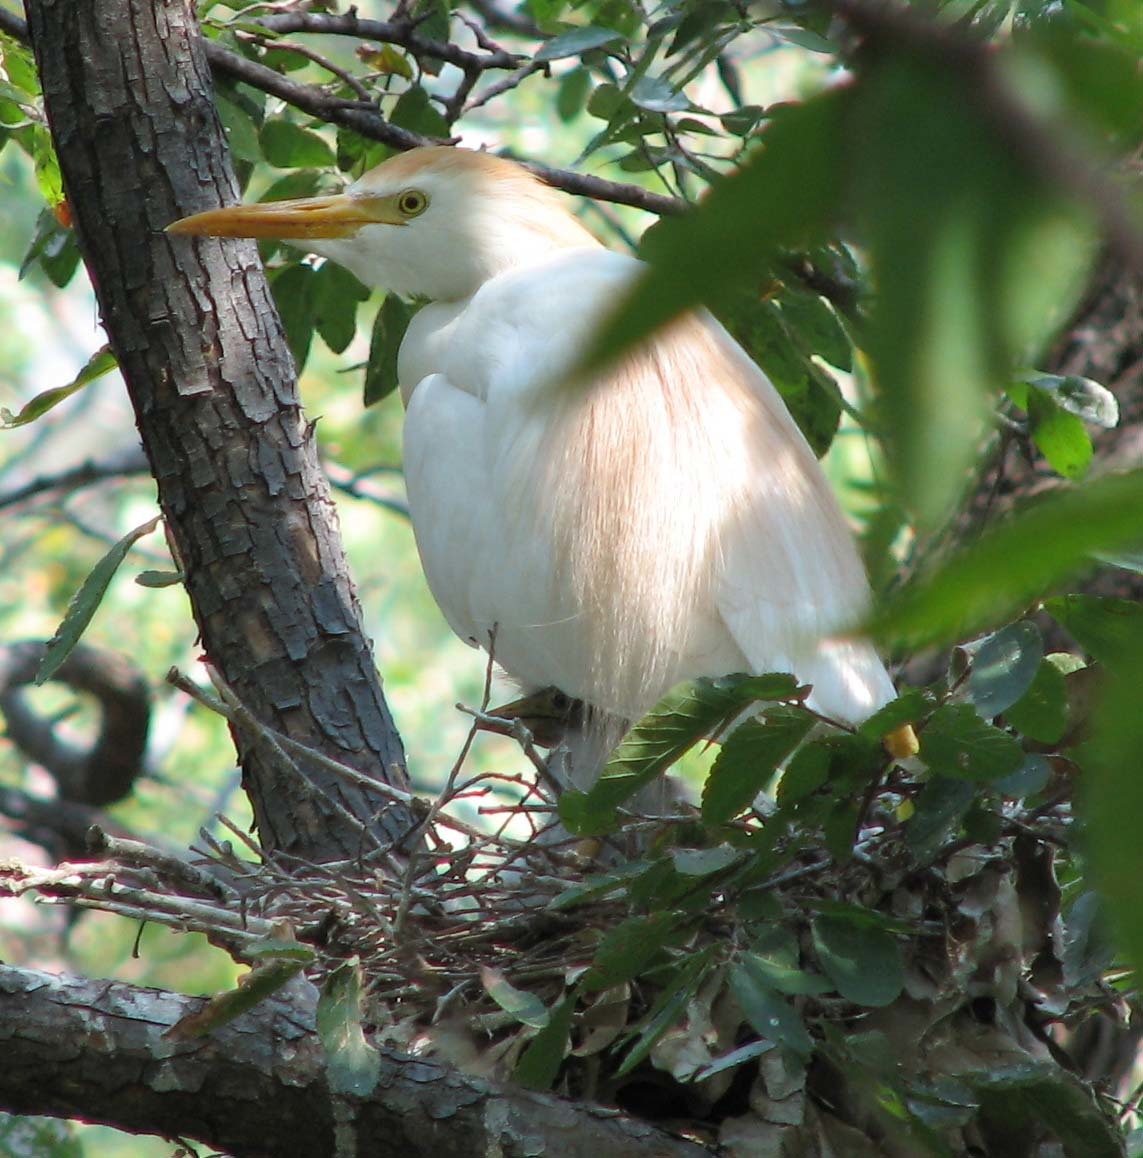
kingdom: Animalia
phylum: Chordata
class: Aves
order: Pelecaniformes
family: Ardeidae
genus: Bubulcus
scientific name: Bubulcus ibis
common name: Cattle egret
